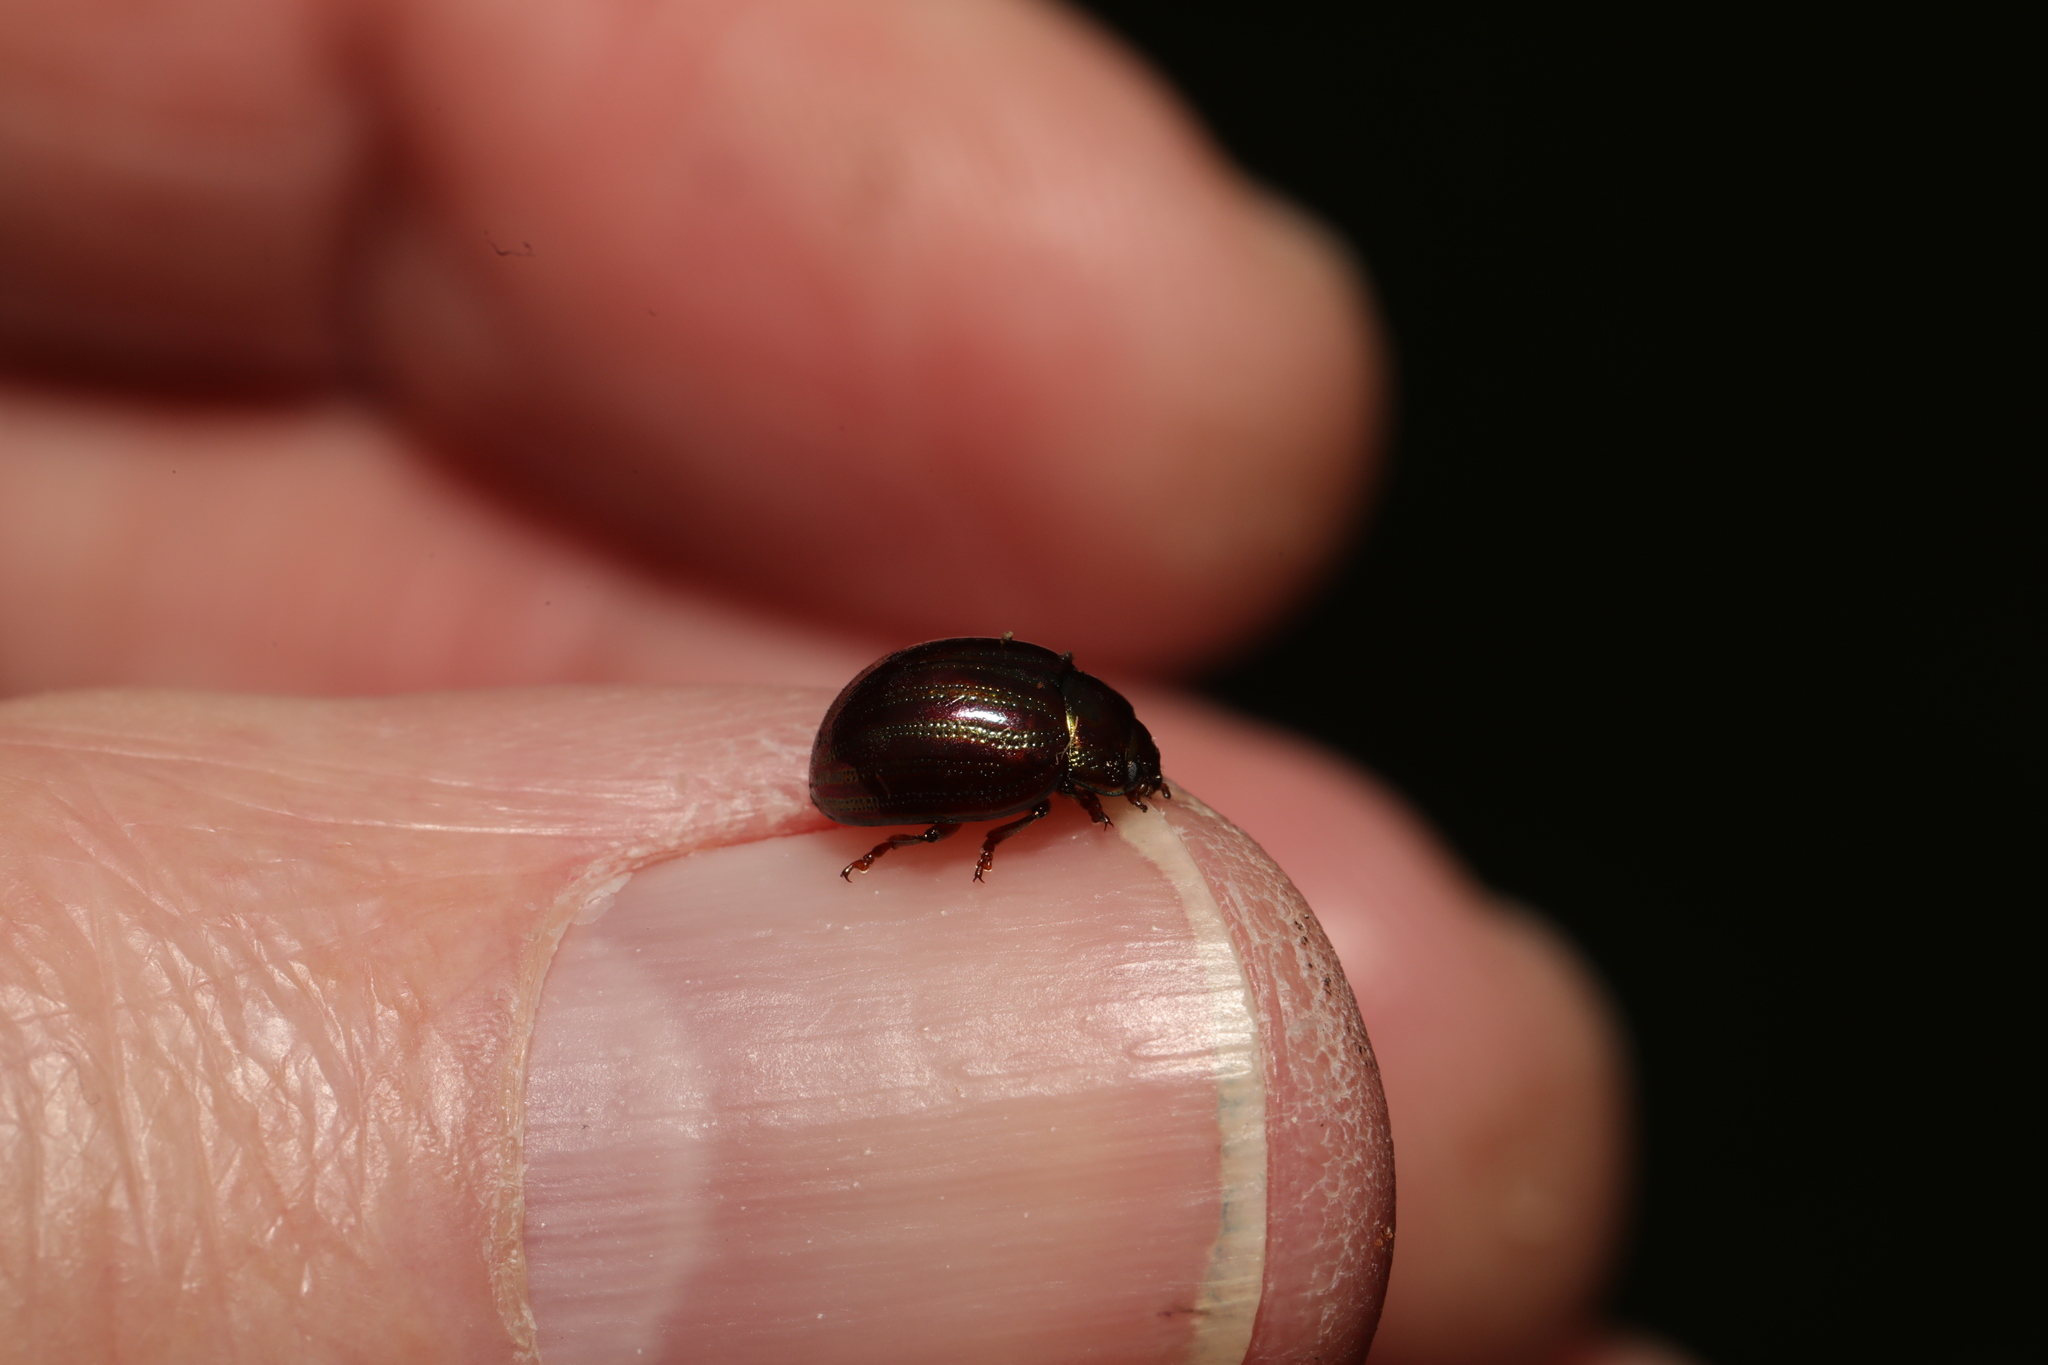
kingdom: Animalia
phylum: Arthropoda
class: Insecta
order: Coleoptera
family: Chrysomelidae
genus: Chrysolina
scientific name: Chrysolina americana
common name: Rosemary beetle
